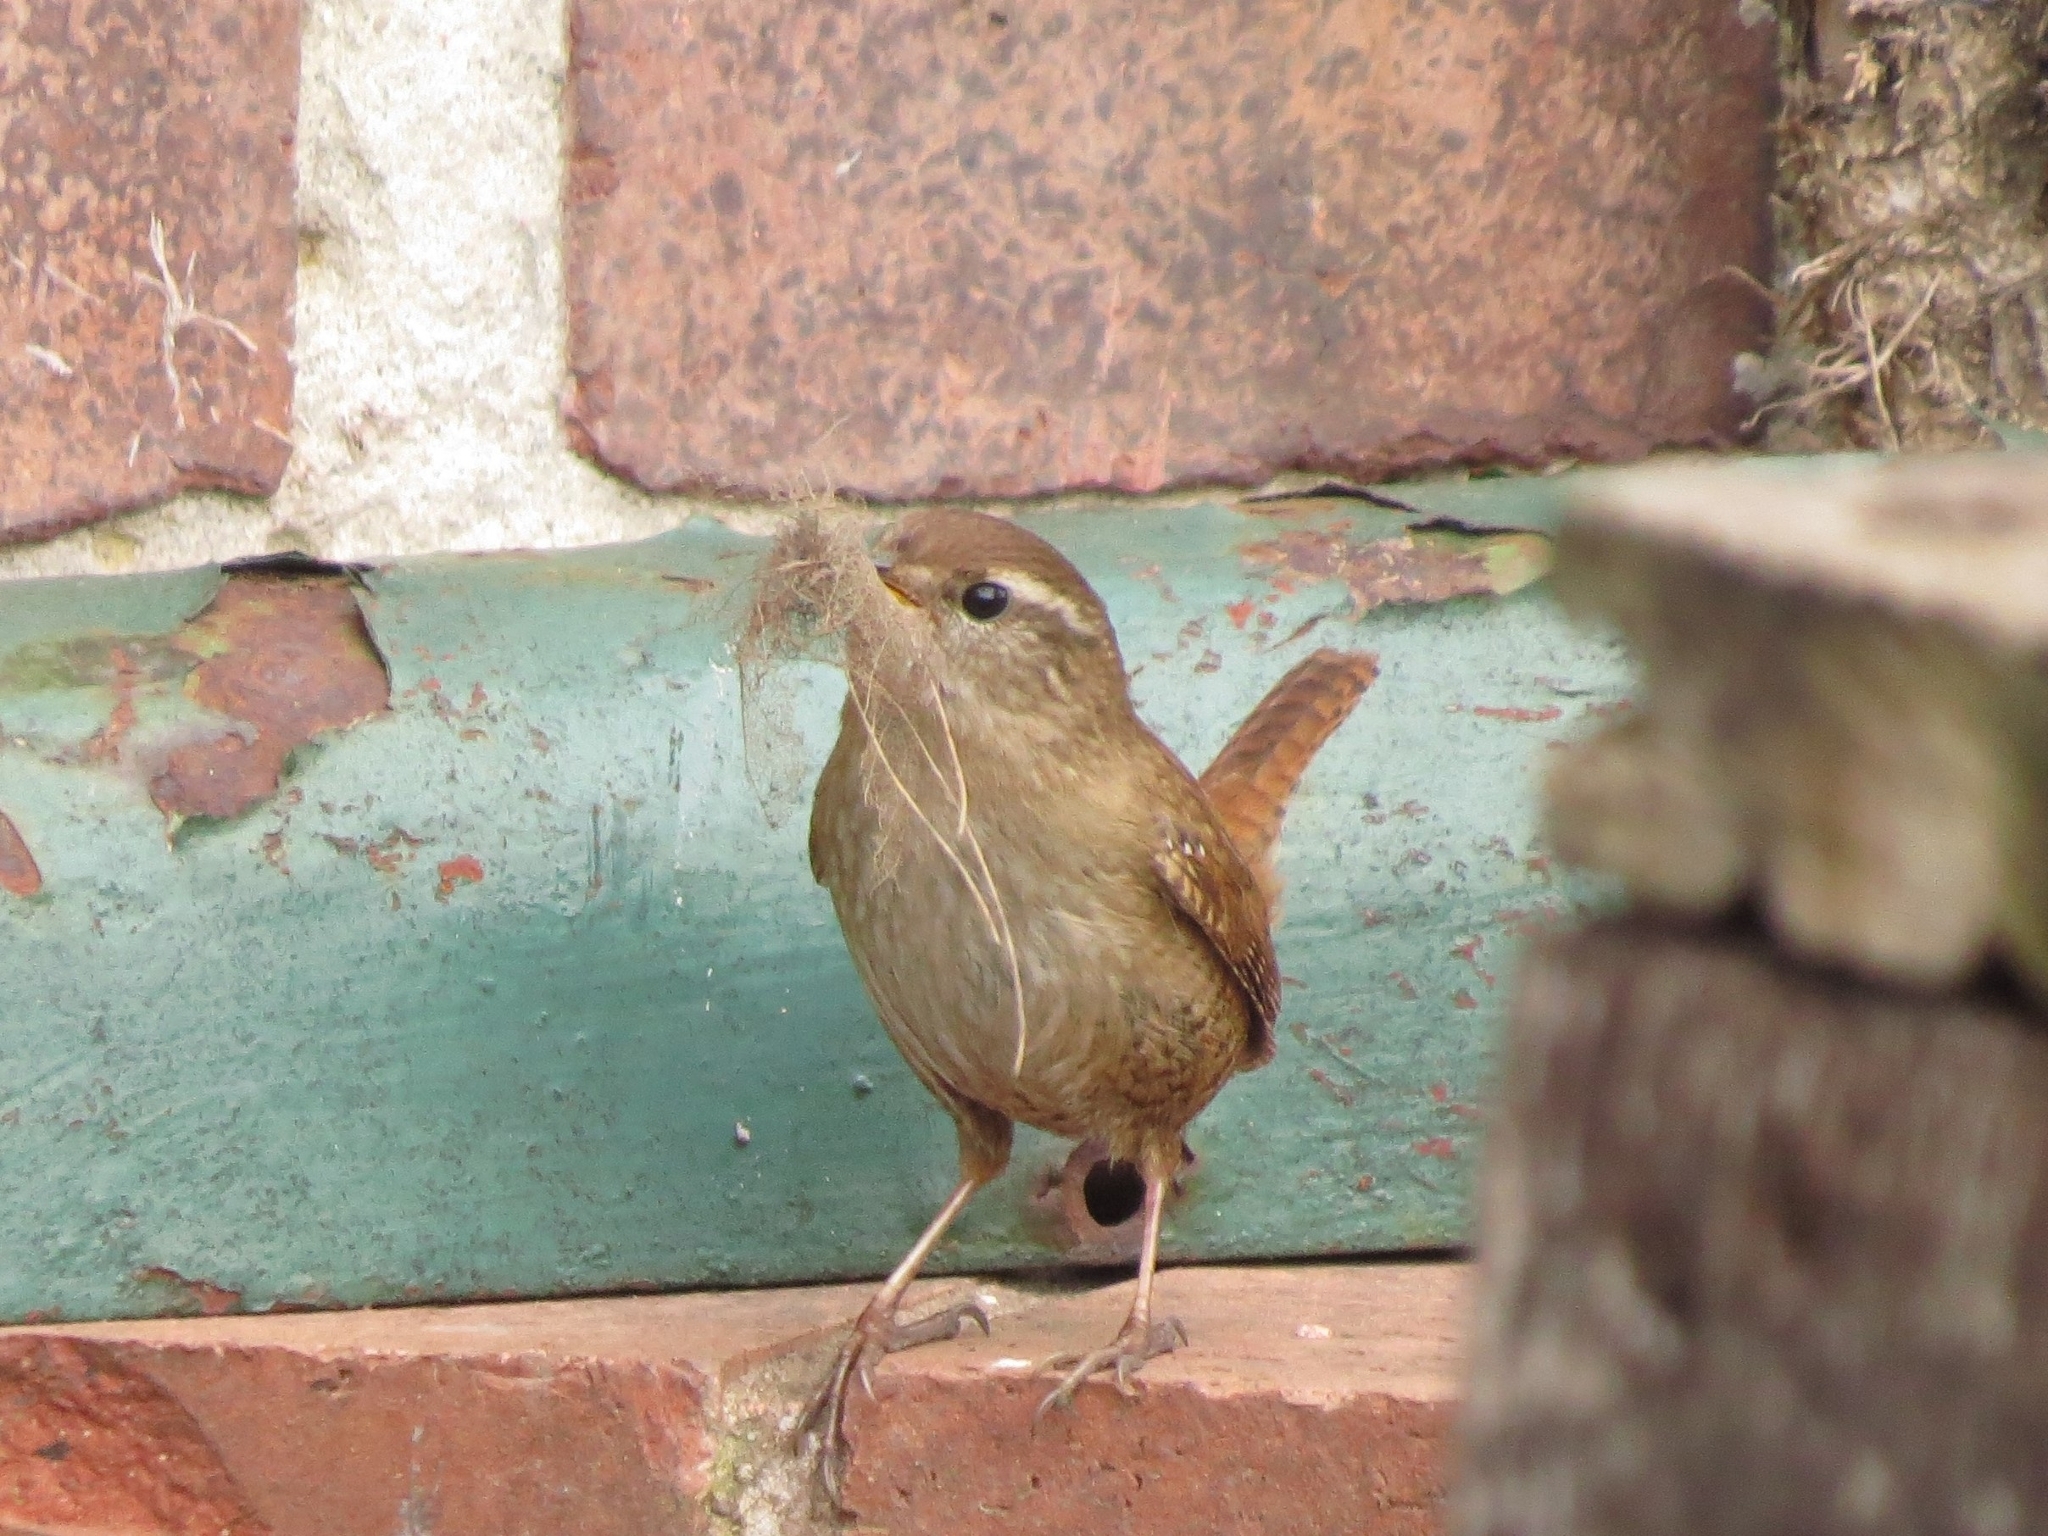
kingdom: Animalia
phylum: Chordata
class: Aves
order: Passeriformes
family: Troglodytidae
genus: Troglodytes
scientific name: Troglodytes troglodytes
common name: Eurasian wren
